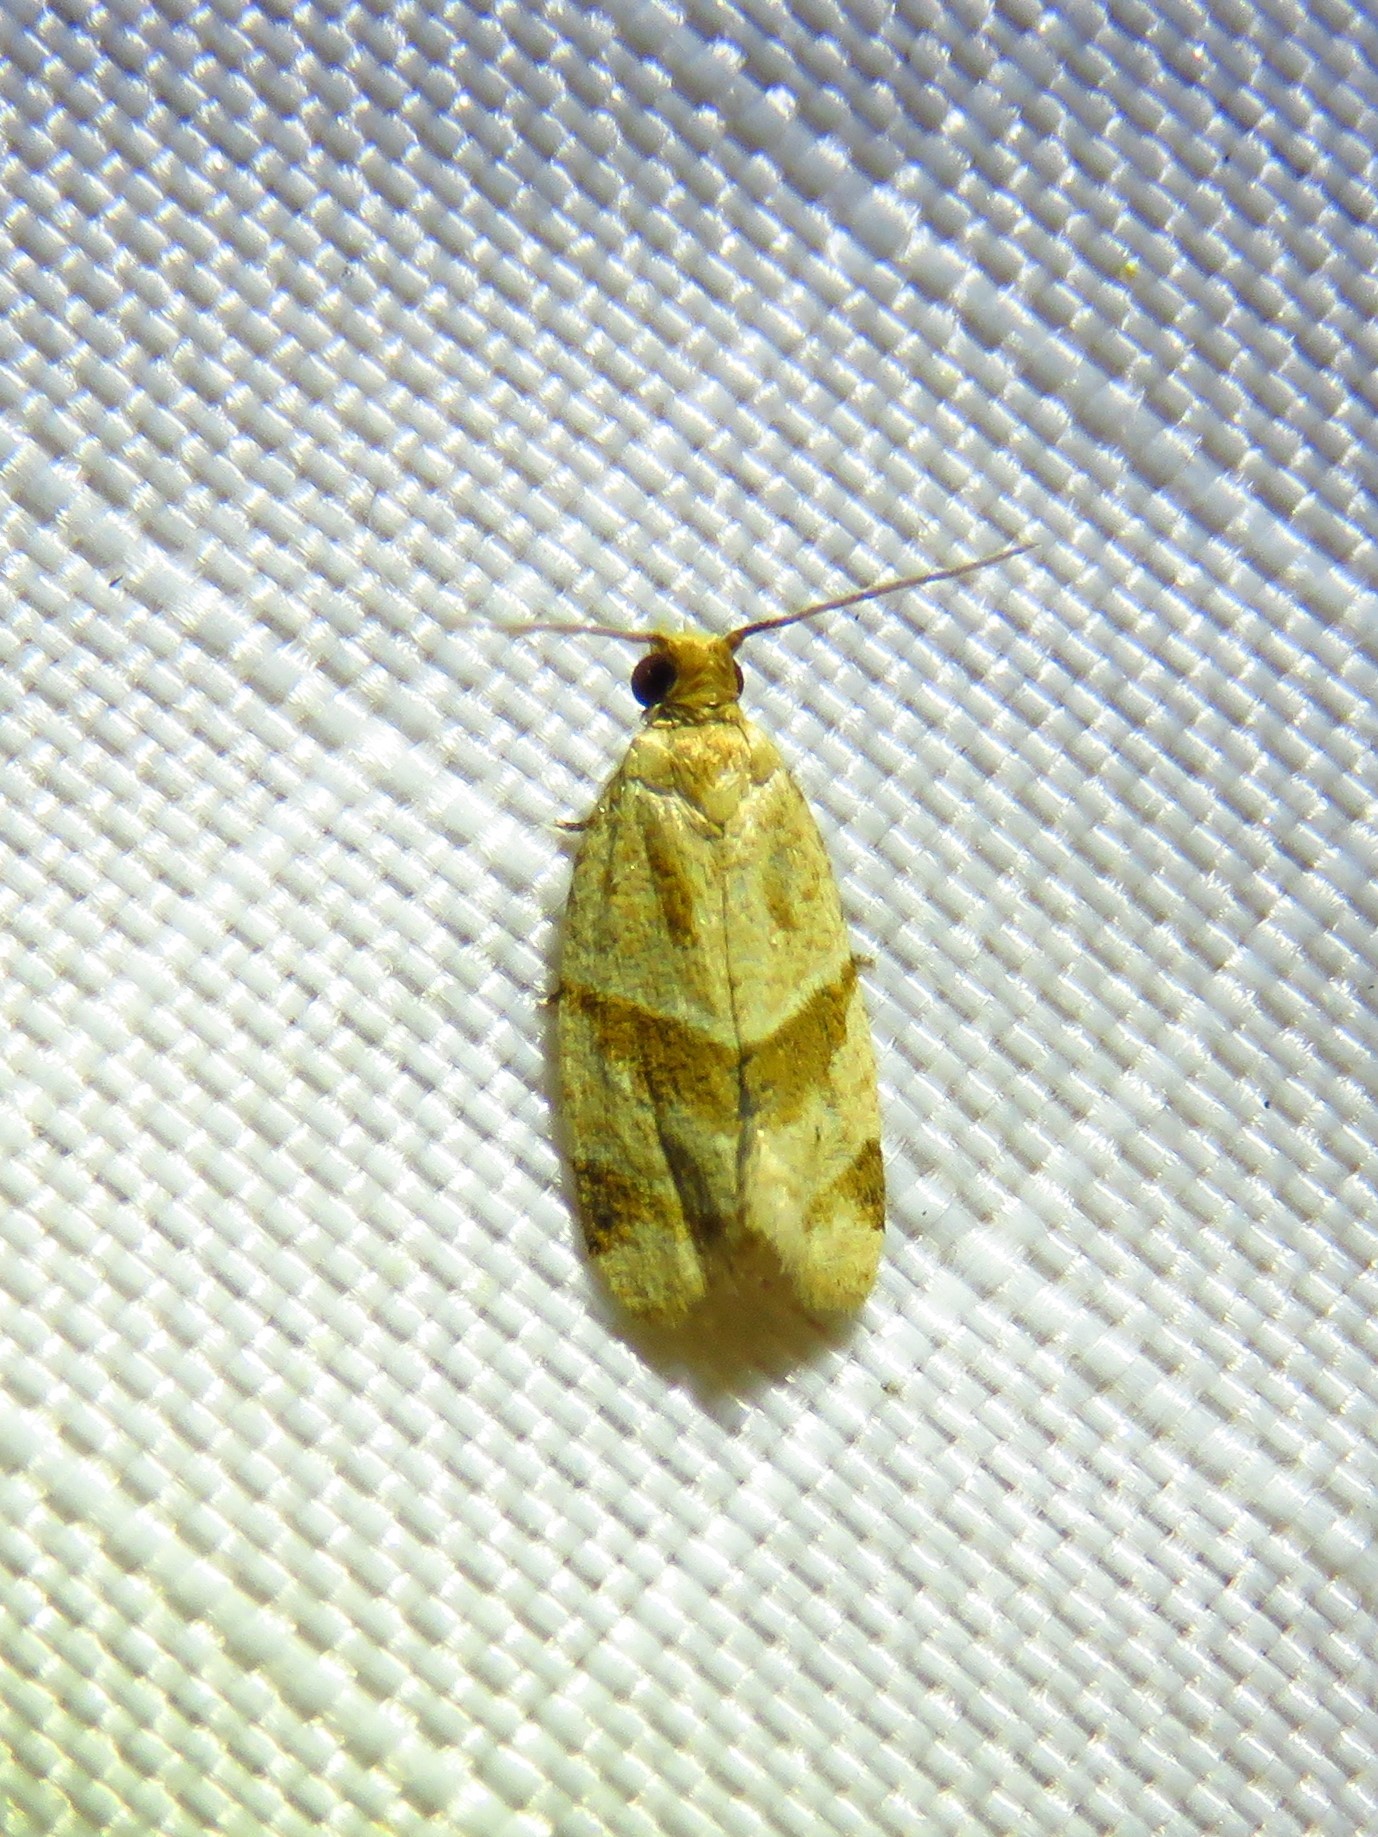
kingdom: Animalia
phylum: Arthropoda
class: Insecta
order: Lepidoptera
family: Tortricidae
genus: Clepsis
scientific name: Clepsis peritana
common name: Garden tortrix
